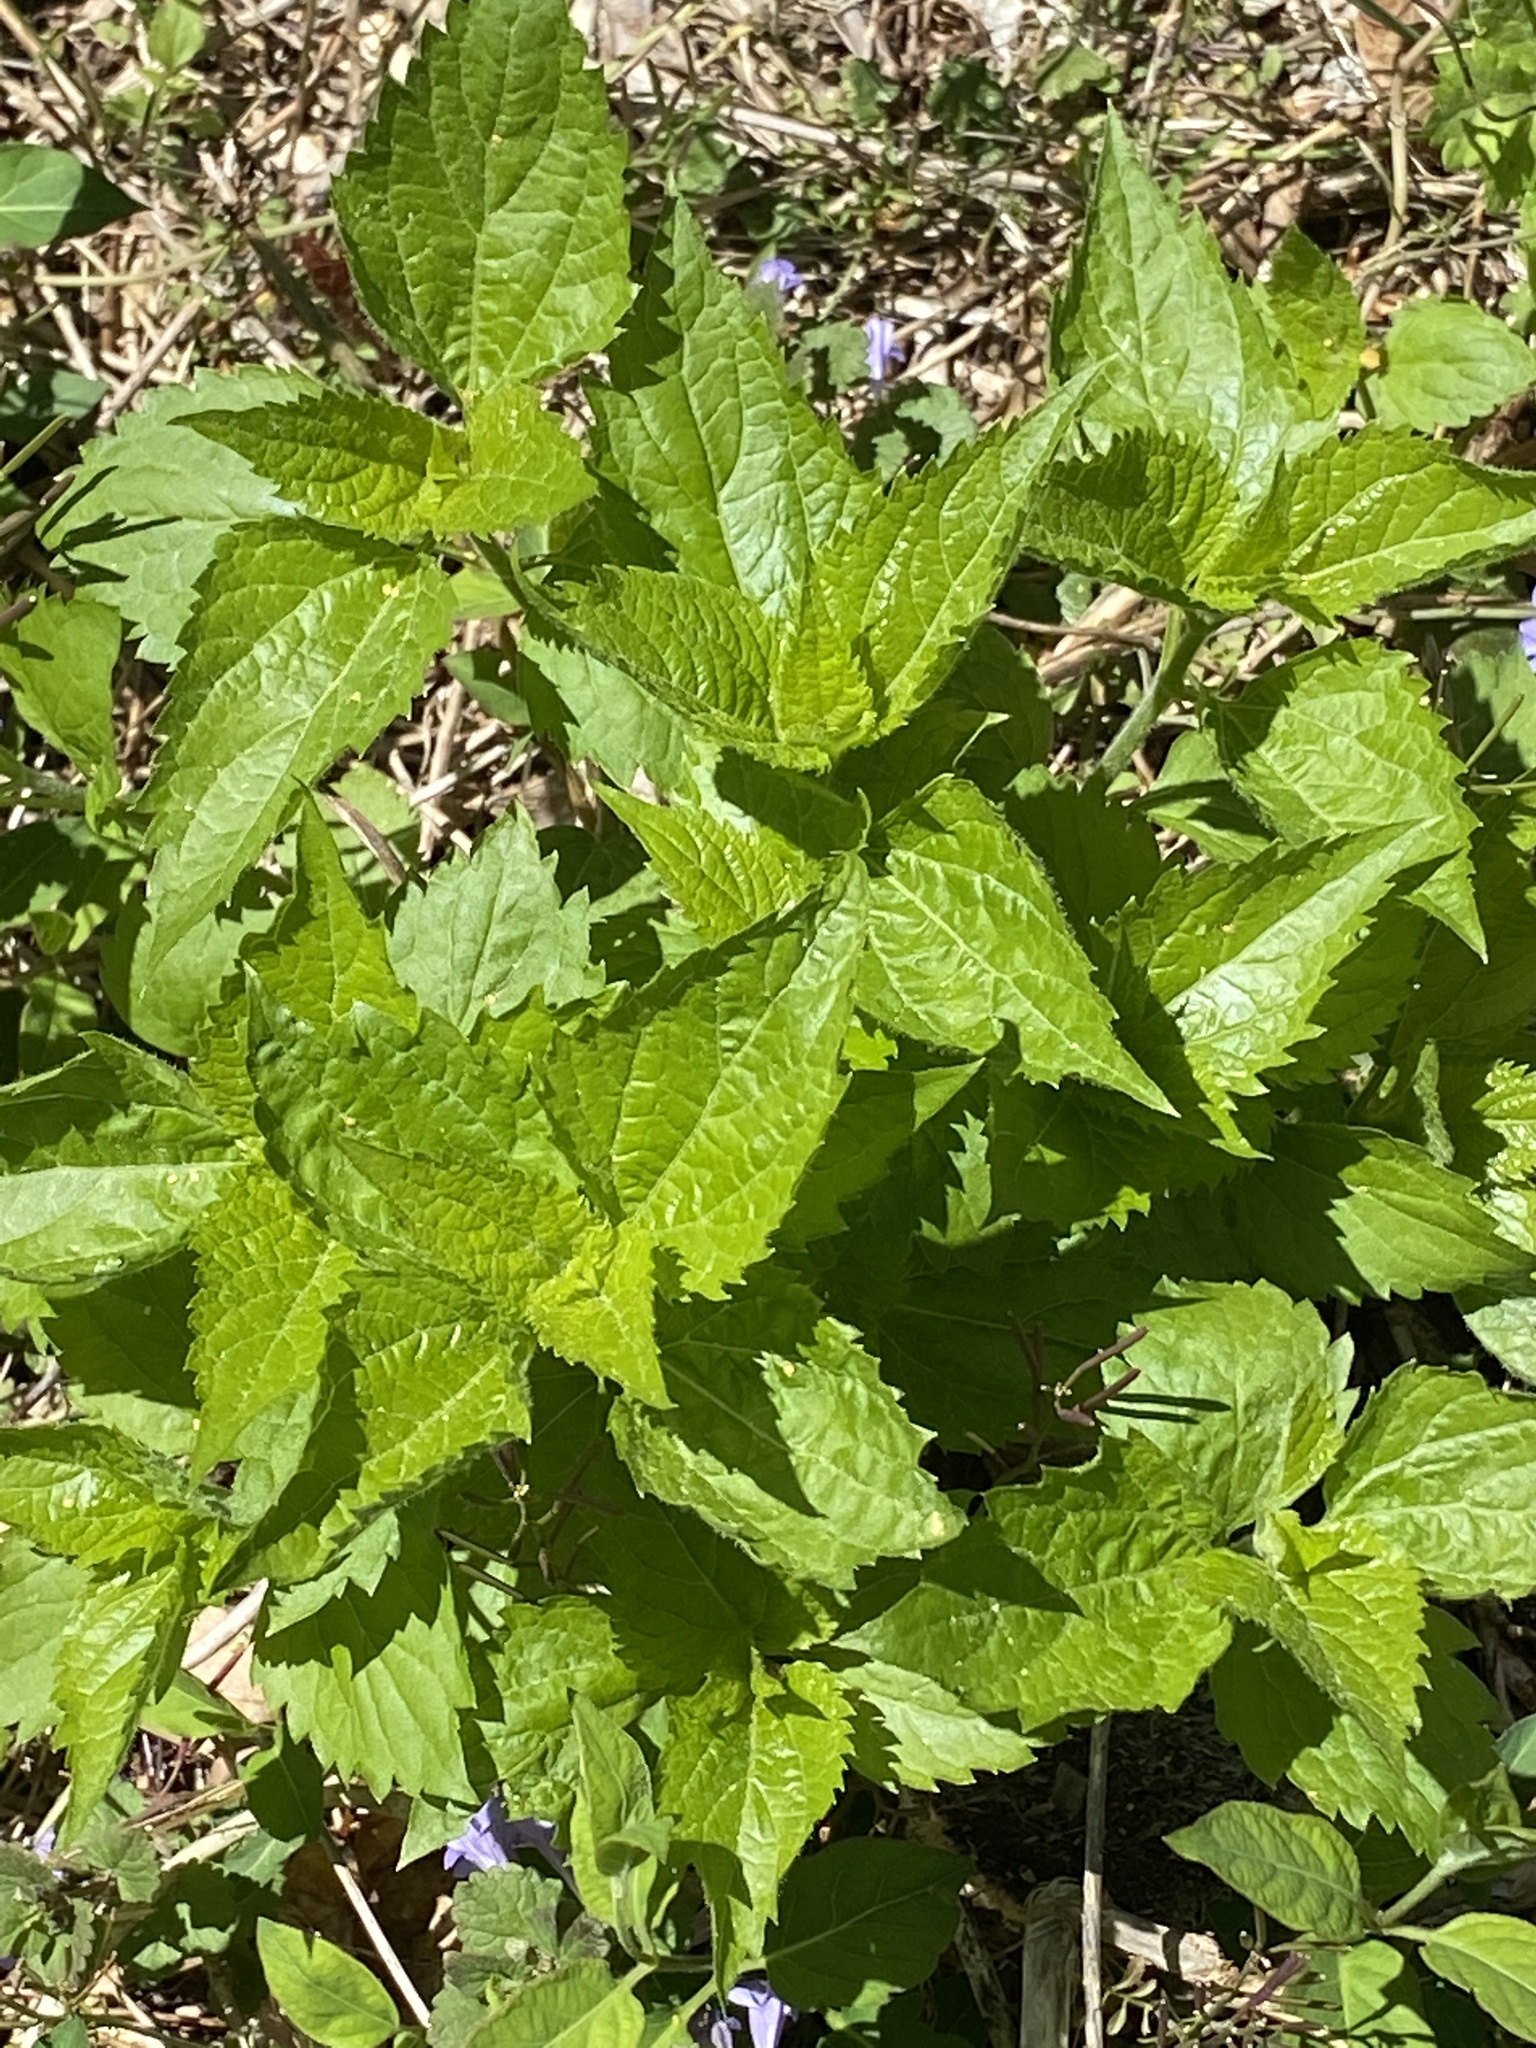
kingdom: Plantae
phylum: Tracheophyta
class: Magnoliopsida
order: Asterales
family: Asteraceae
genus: Ageratina
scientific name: Ageratina altissima
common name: White snakeroot
